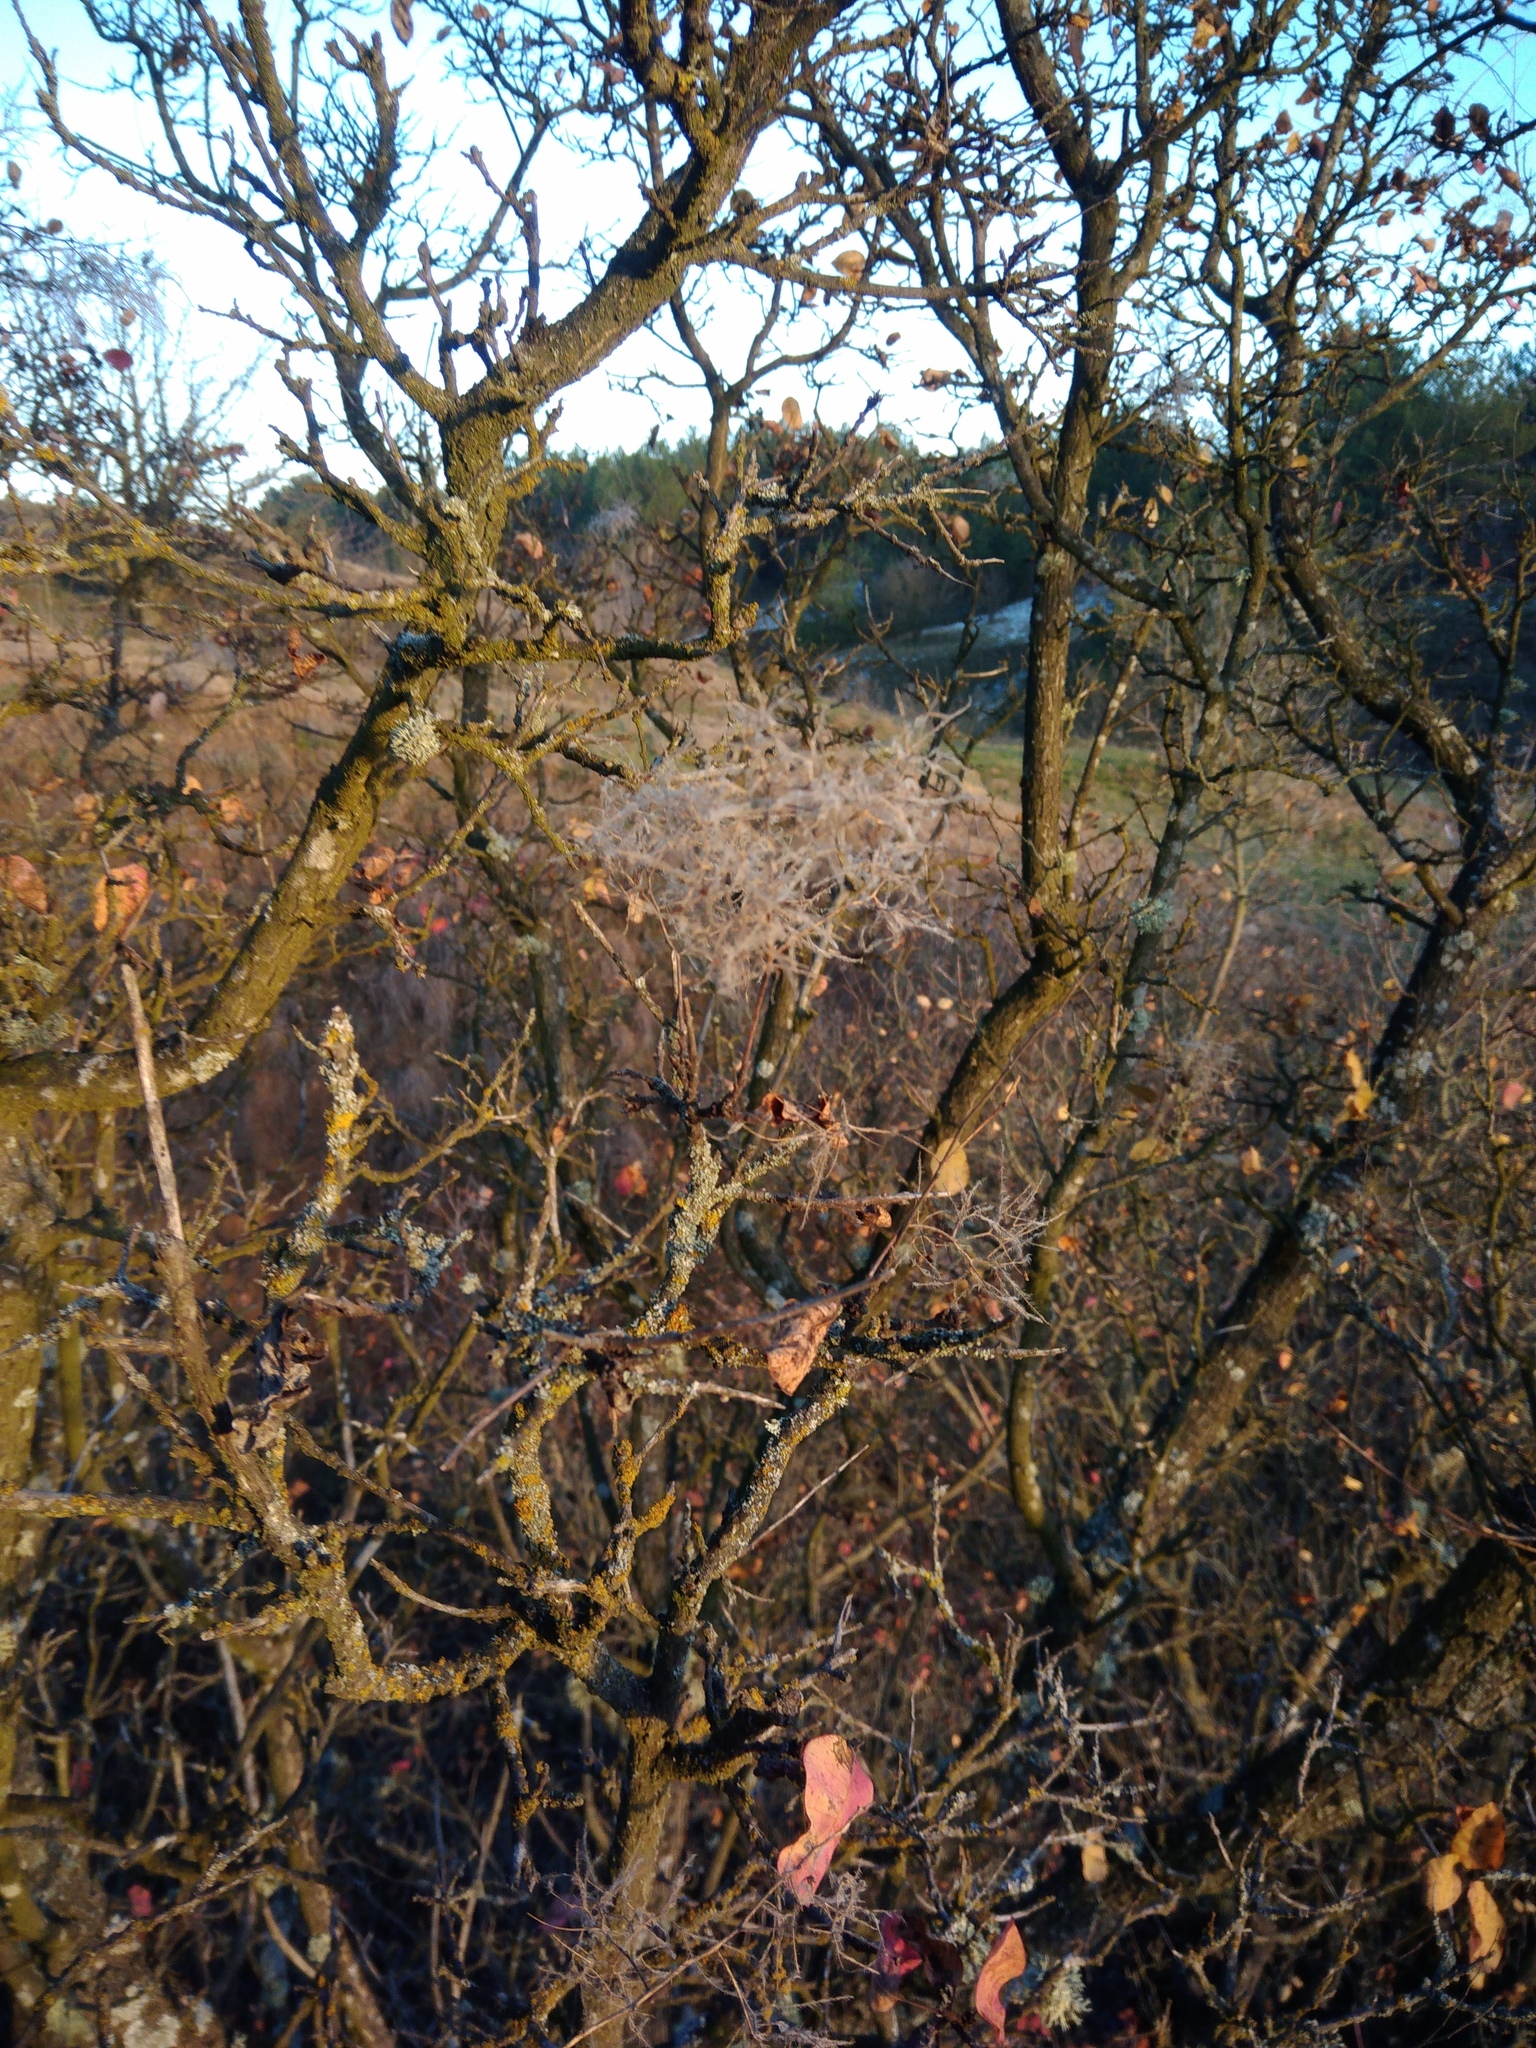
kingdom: Plantae
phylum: Tracheophyta
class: Magnoliopsida
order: Sapindales
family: Anacardiaceae
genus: Cotinus
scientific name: Cotinus coggygria
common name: Smoke-tree
